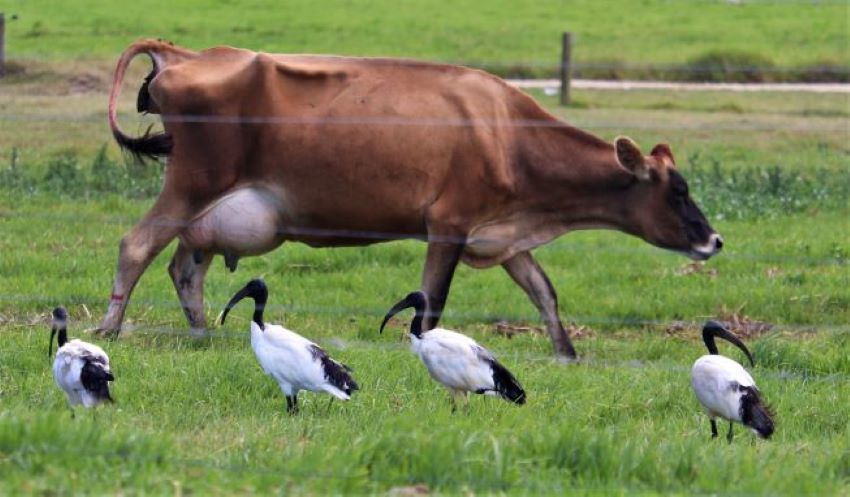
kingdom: Animalia
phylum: Chordata
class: Aves
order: Pelecaniformes
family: Threskiornithidae
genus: Threskiornis
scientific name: Threskiornis aethiopicus
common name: Sacred ibis
